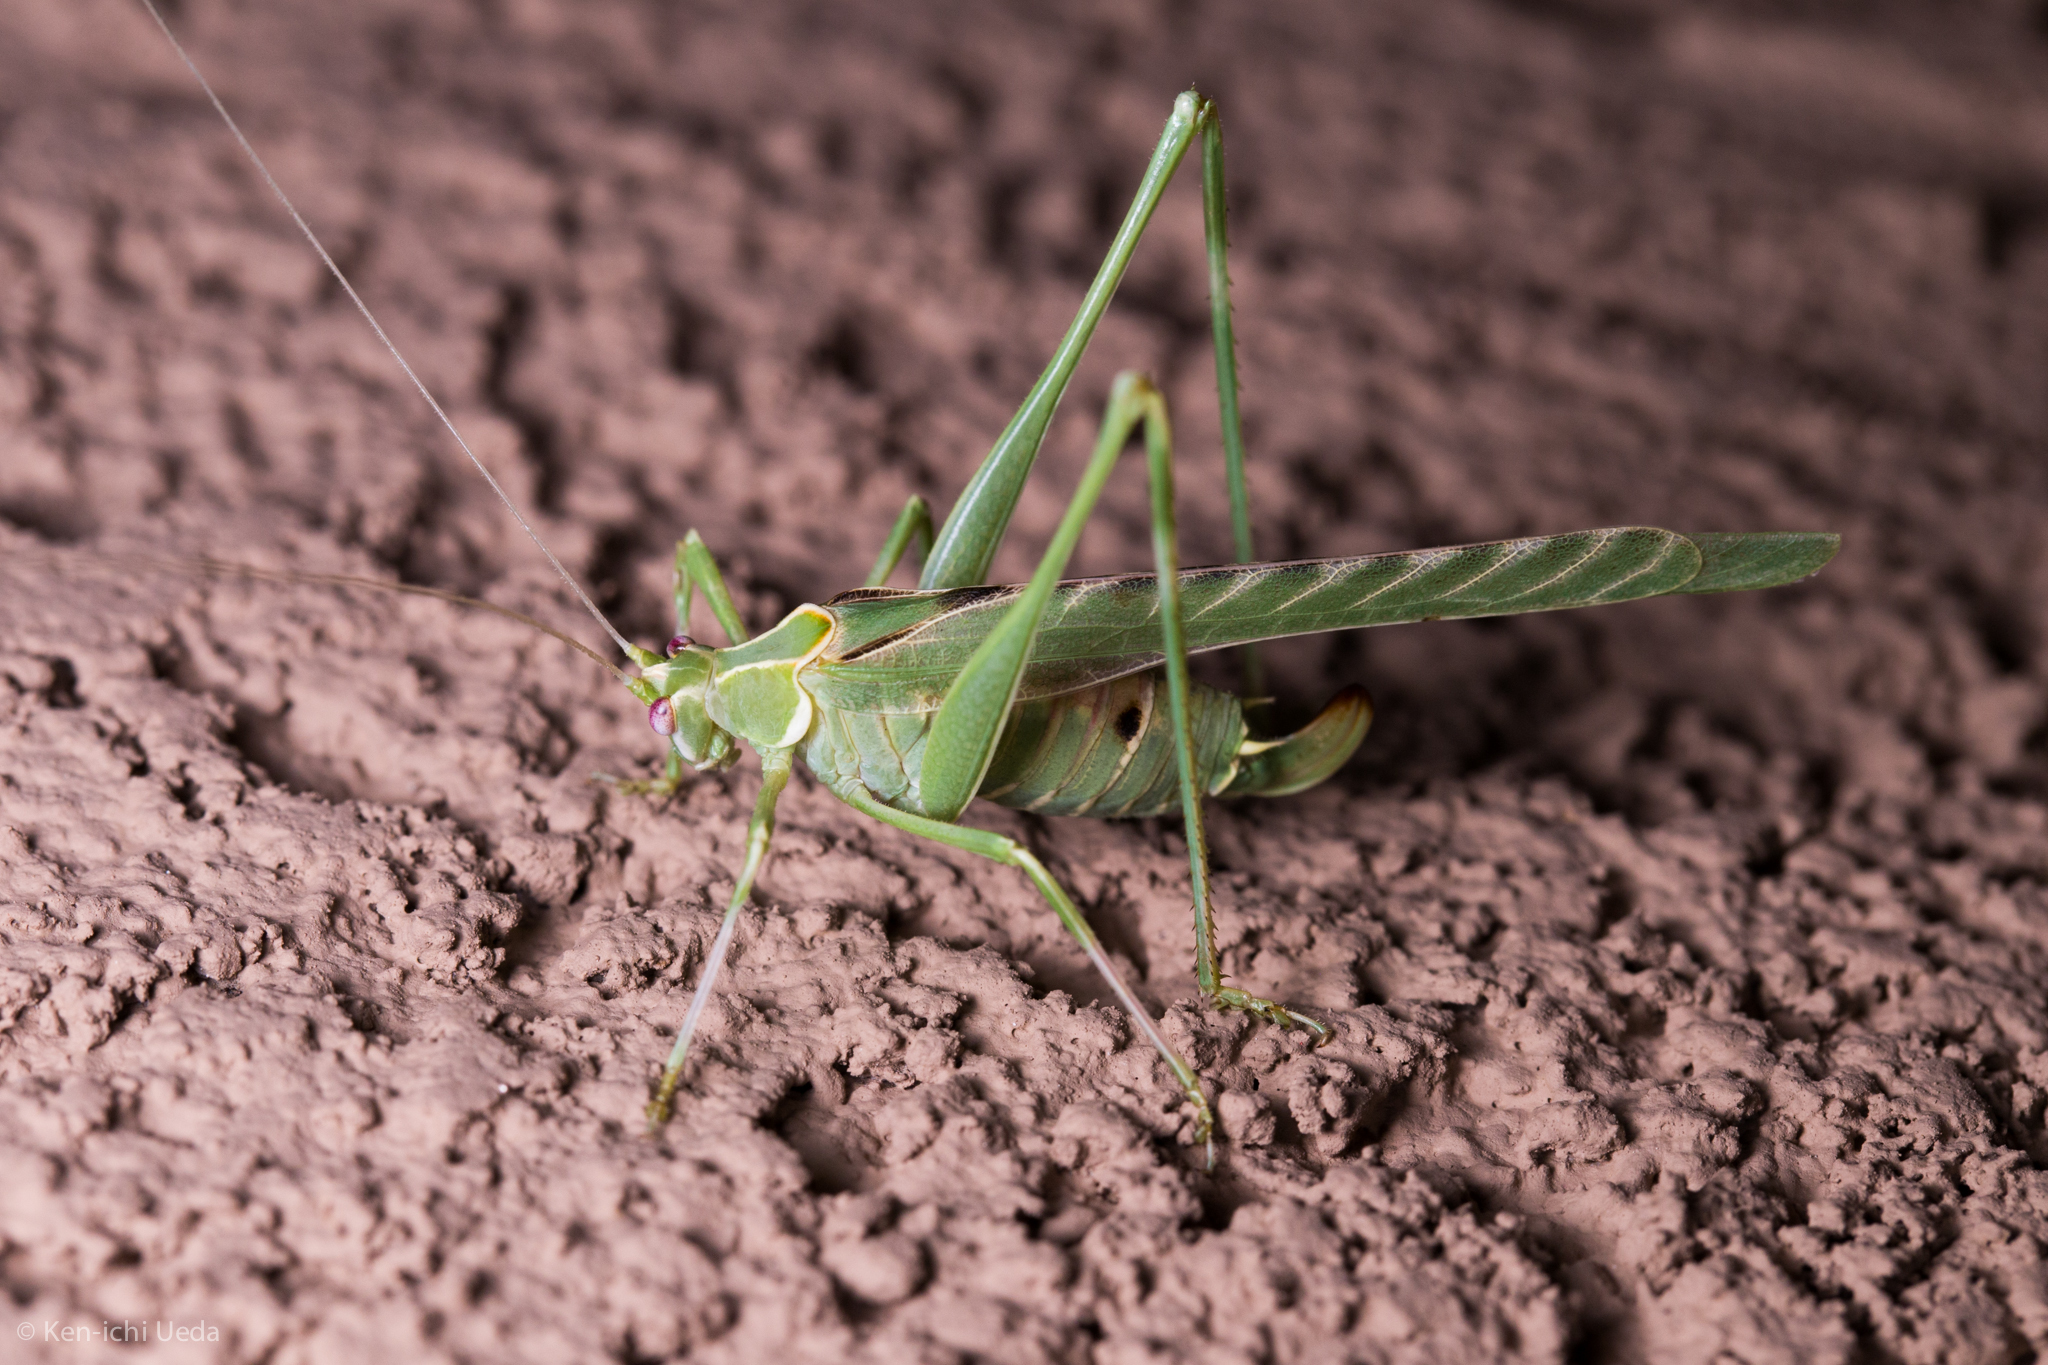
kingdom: Animalia
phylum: Arthropoda
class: Insecta
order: Orthoptera
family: Tettigoniidae
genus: Insara
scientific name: Insara elegans
